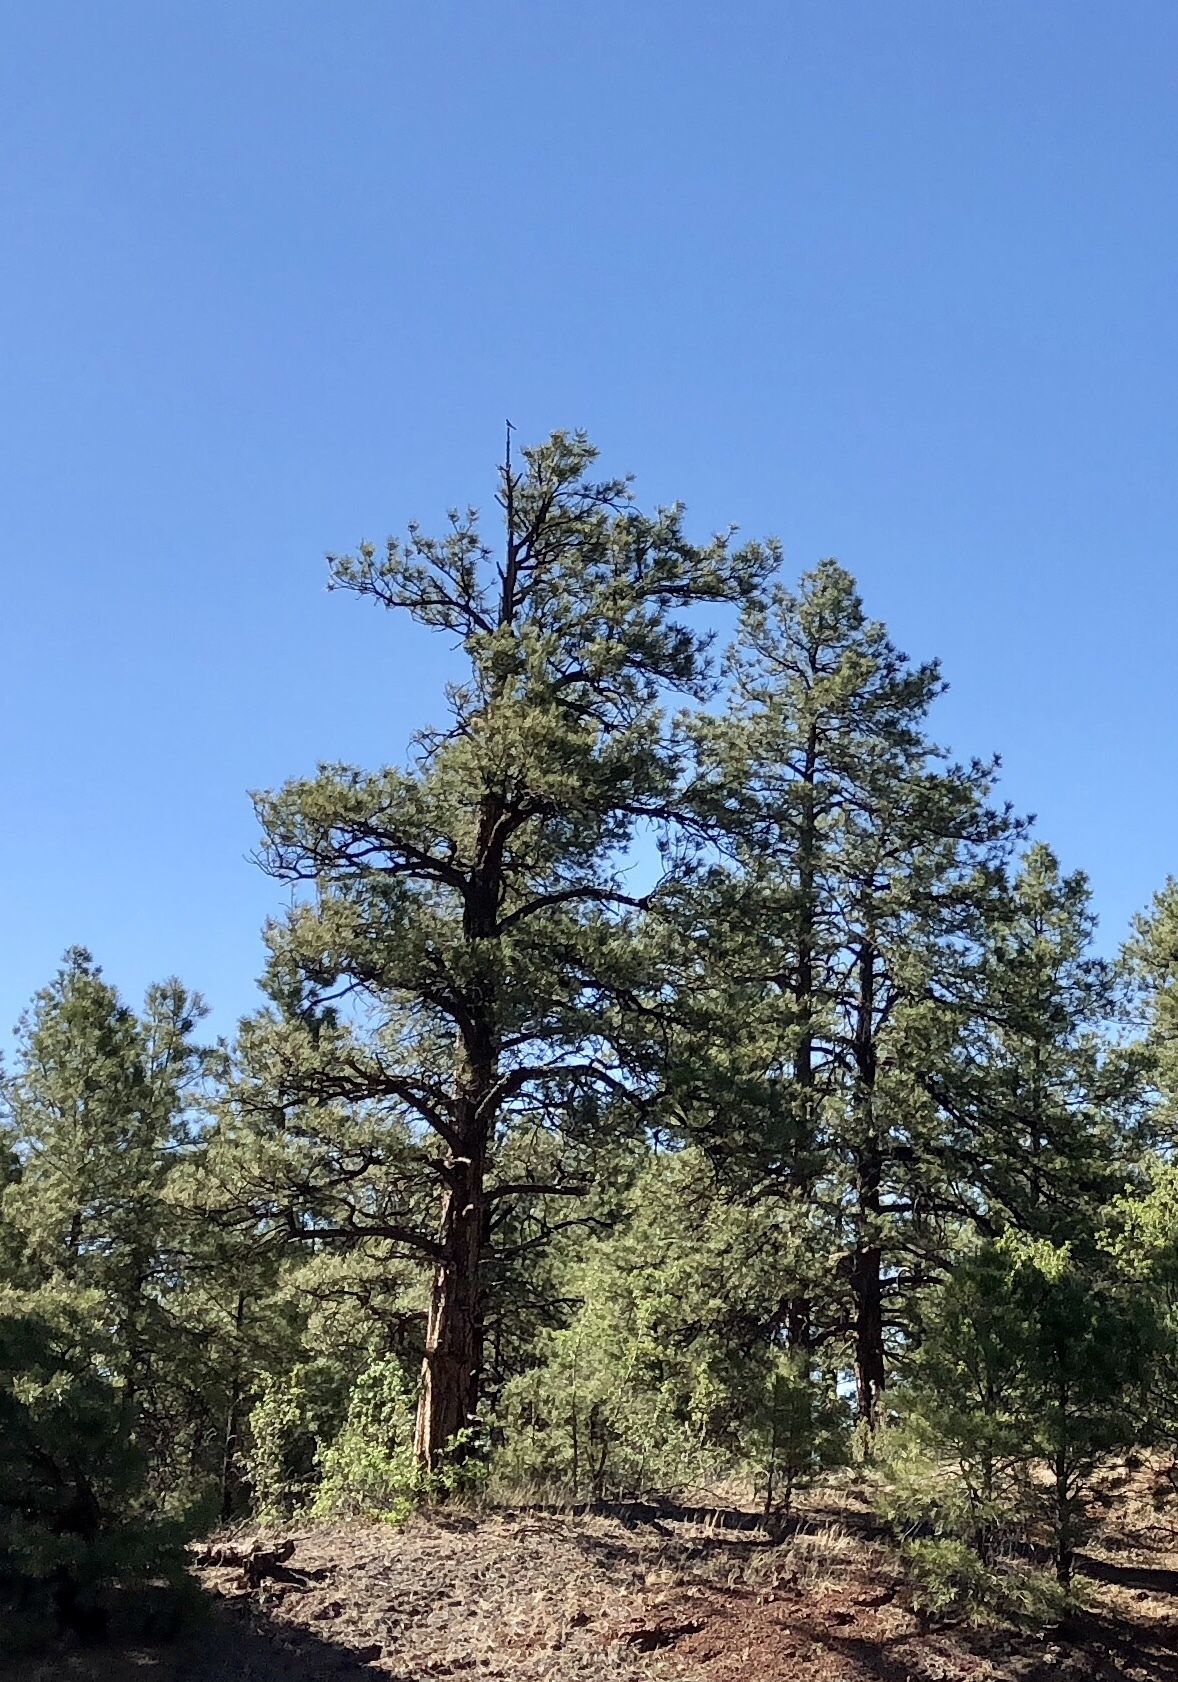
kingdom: Plantae
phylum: Tracheophyta
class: Pinopsida
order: Pinales
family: Pinaceae
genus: Pinus
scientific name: Pinus ponderosa
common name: Western yellow-pine
